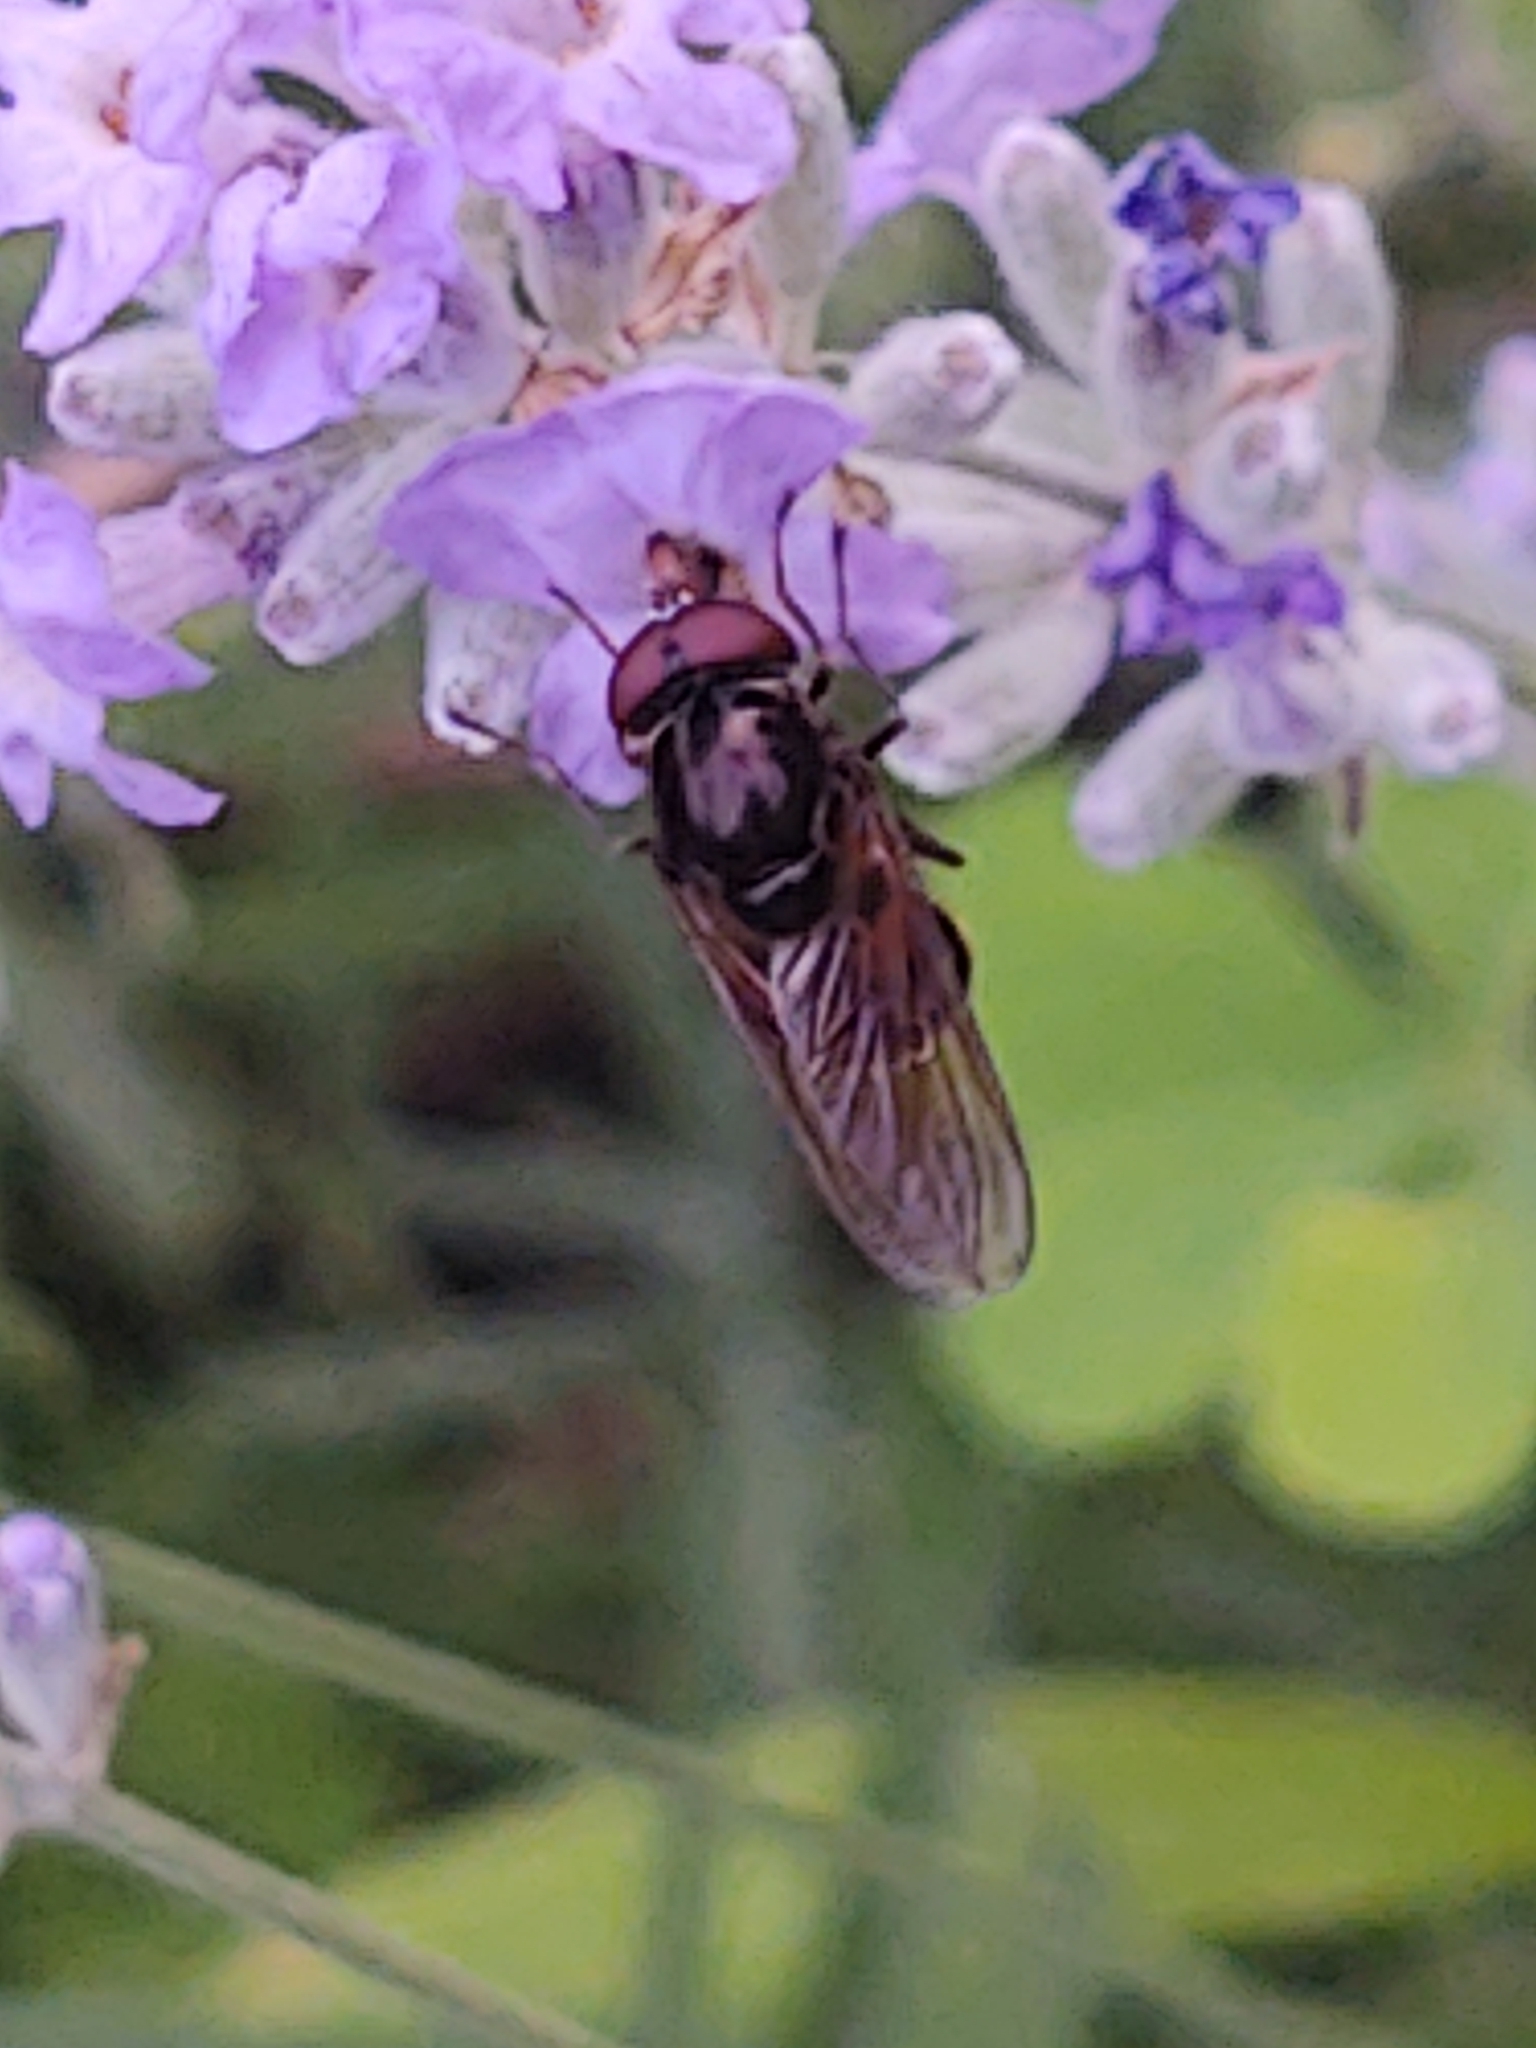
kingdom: Animalia
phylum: Arthropoda
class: Insecta
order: Diptera
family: Syrphidae
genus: Rhingia
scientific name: Rhingia nasica
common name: American snout fly
